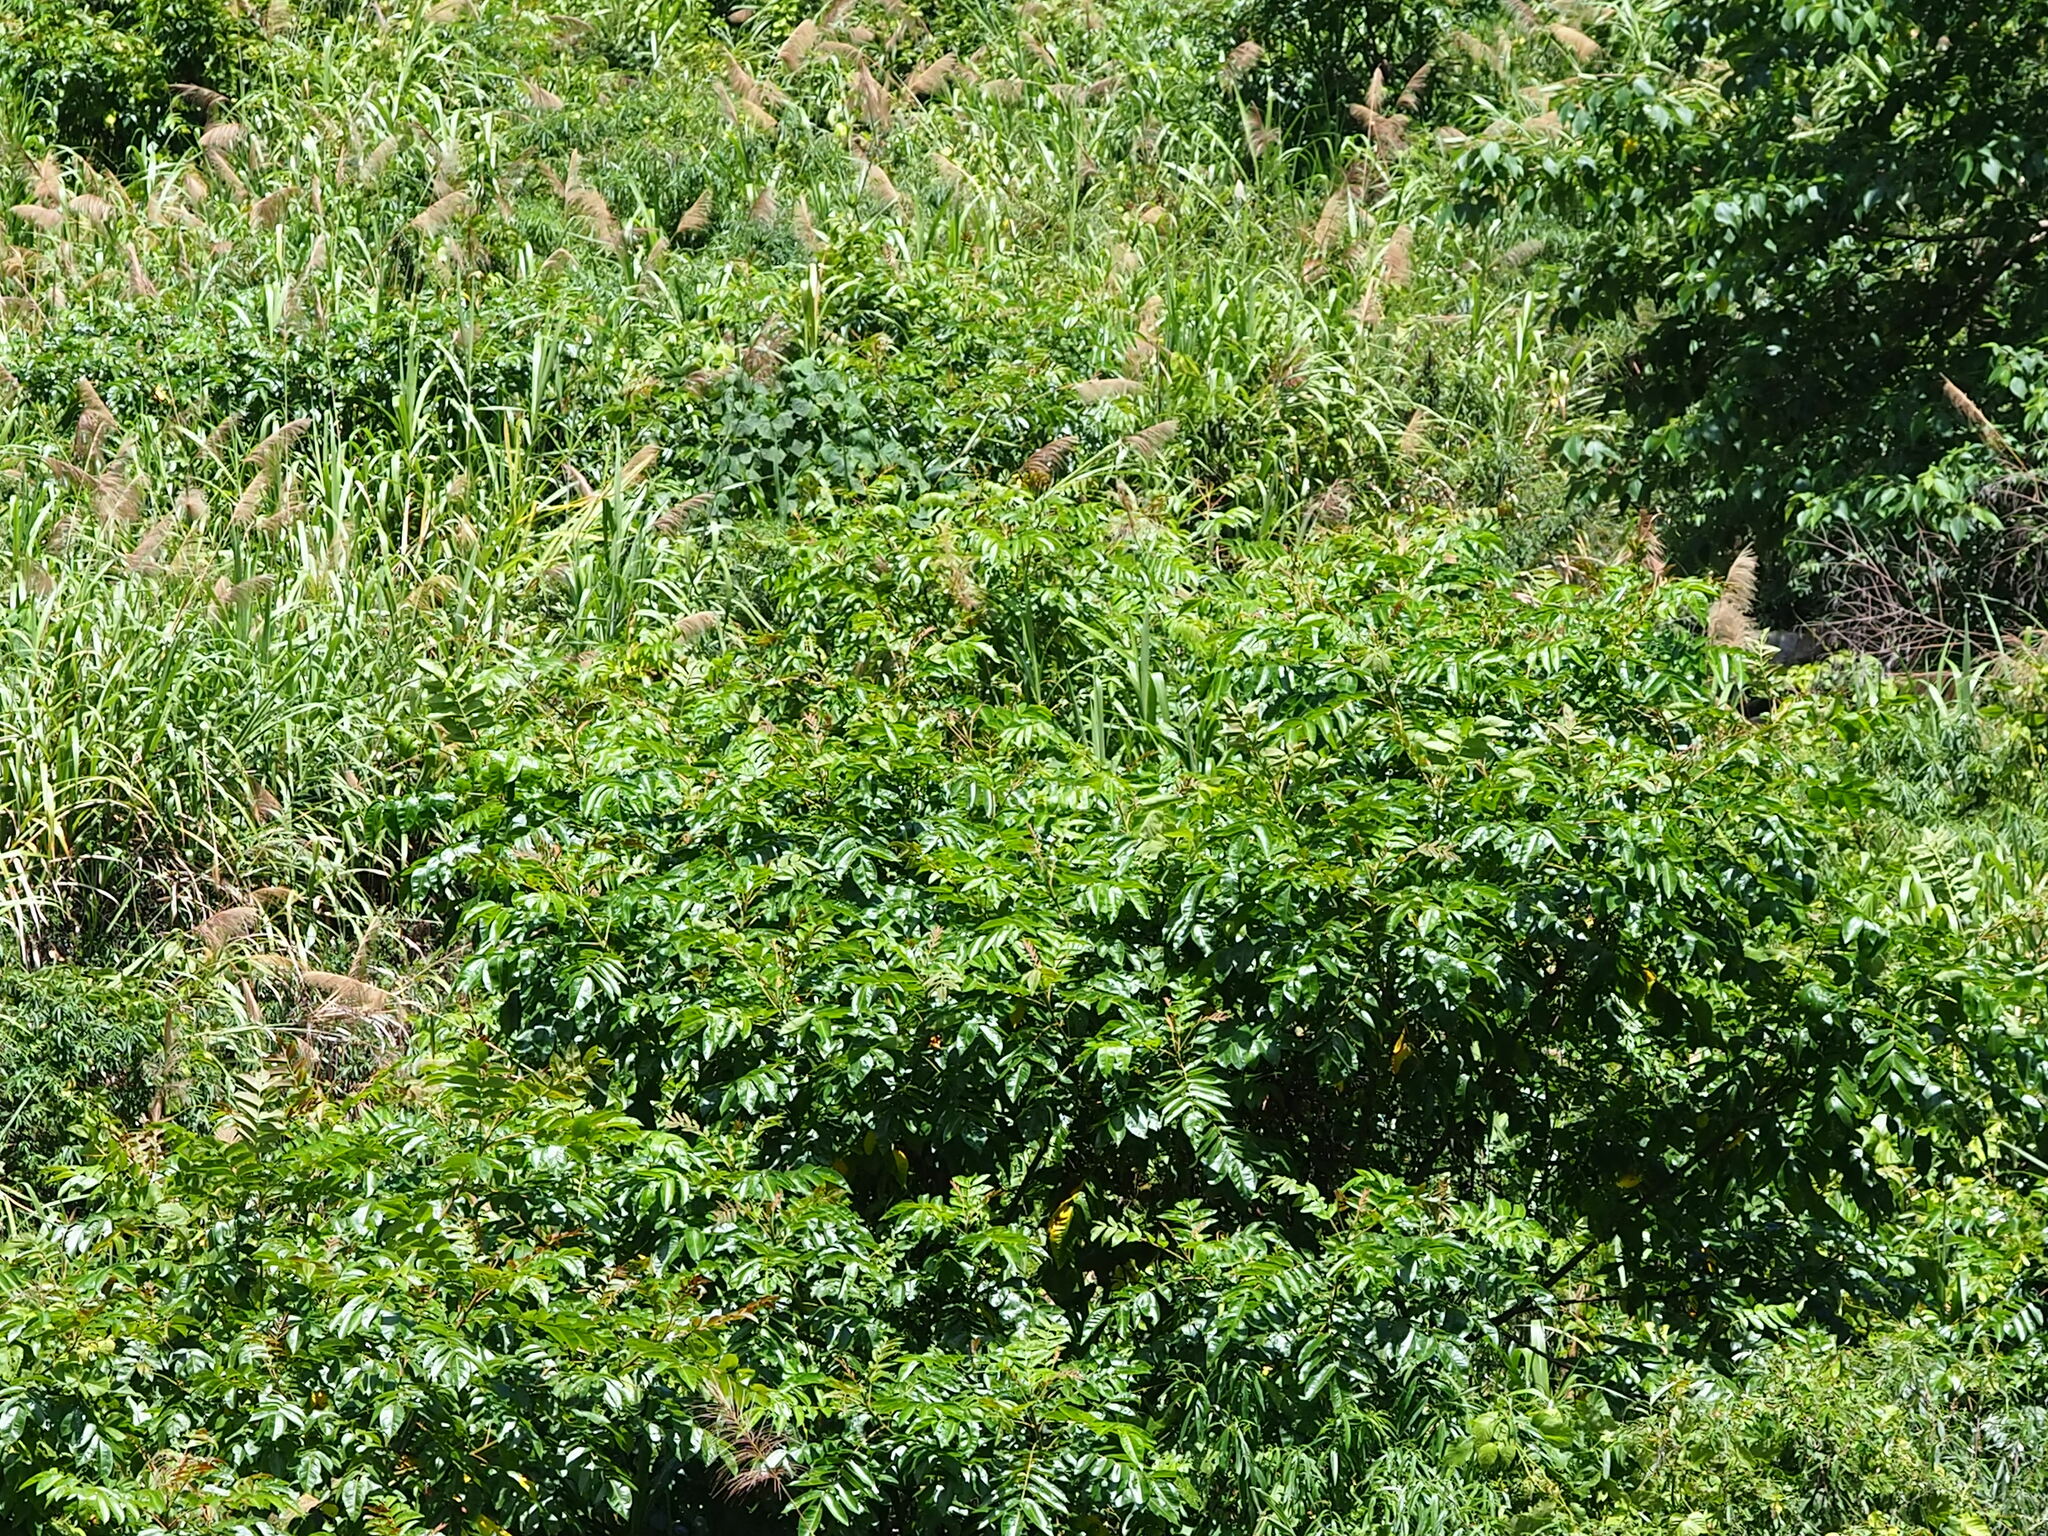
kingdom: Plantae
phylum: Tracheophyta
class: Magnoliopsida
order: Sapindales
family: Anacardiaceae
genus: Rhus
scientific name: Rhus chinensis
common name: Chinese gall
